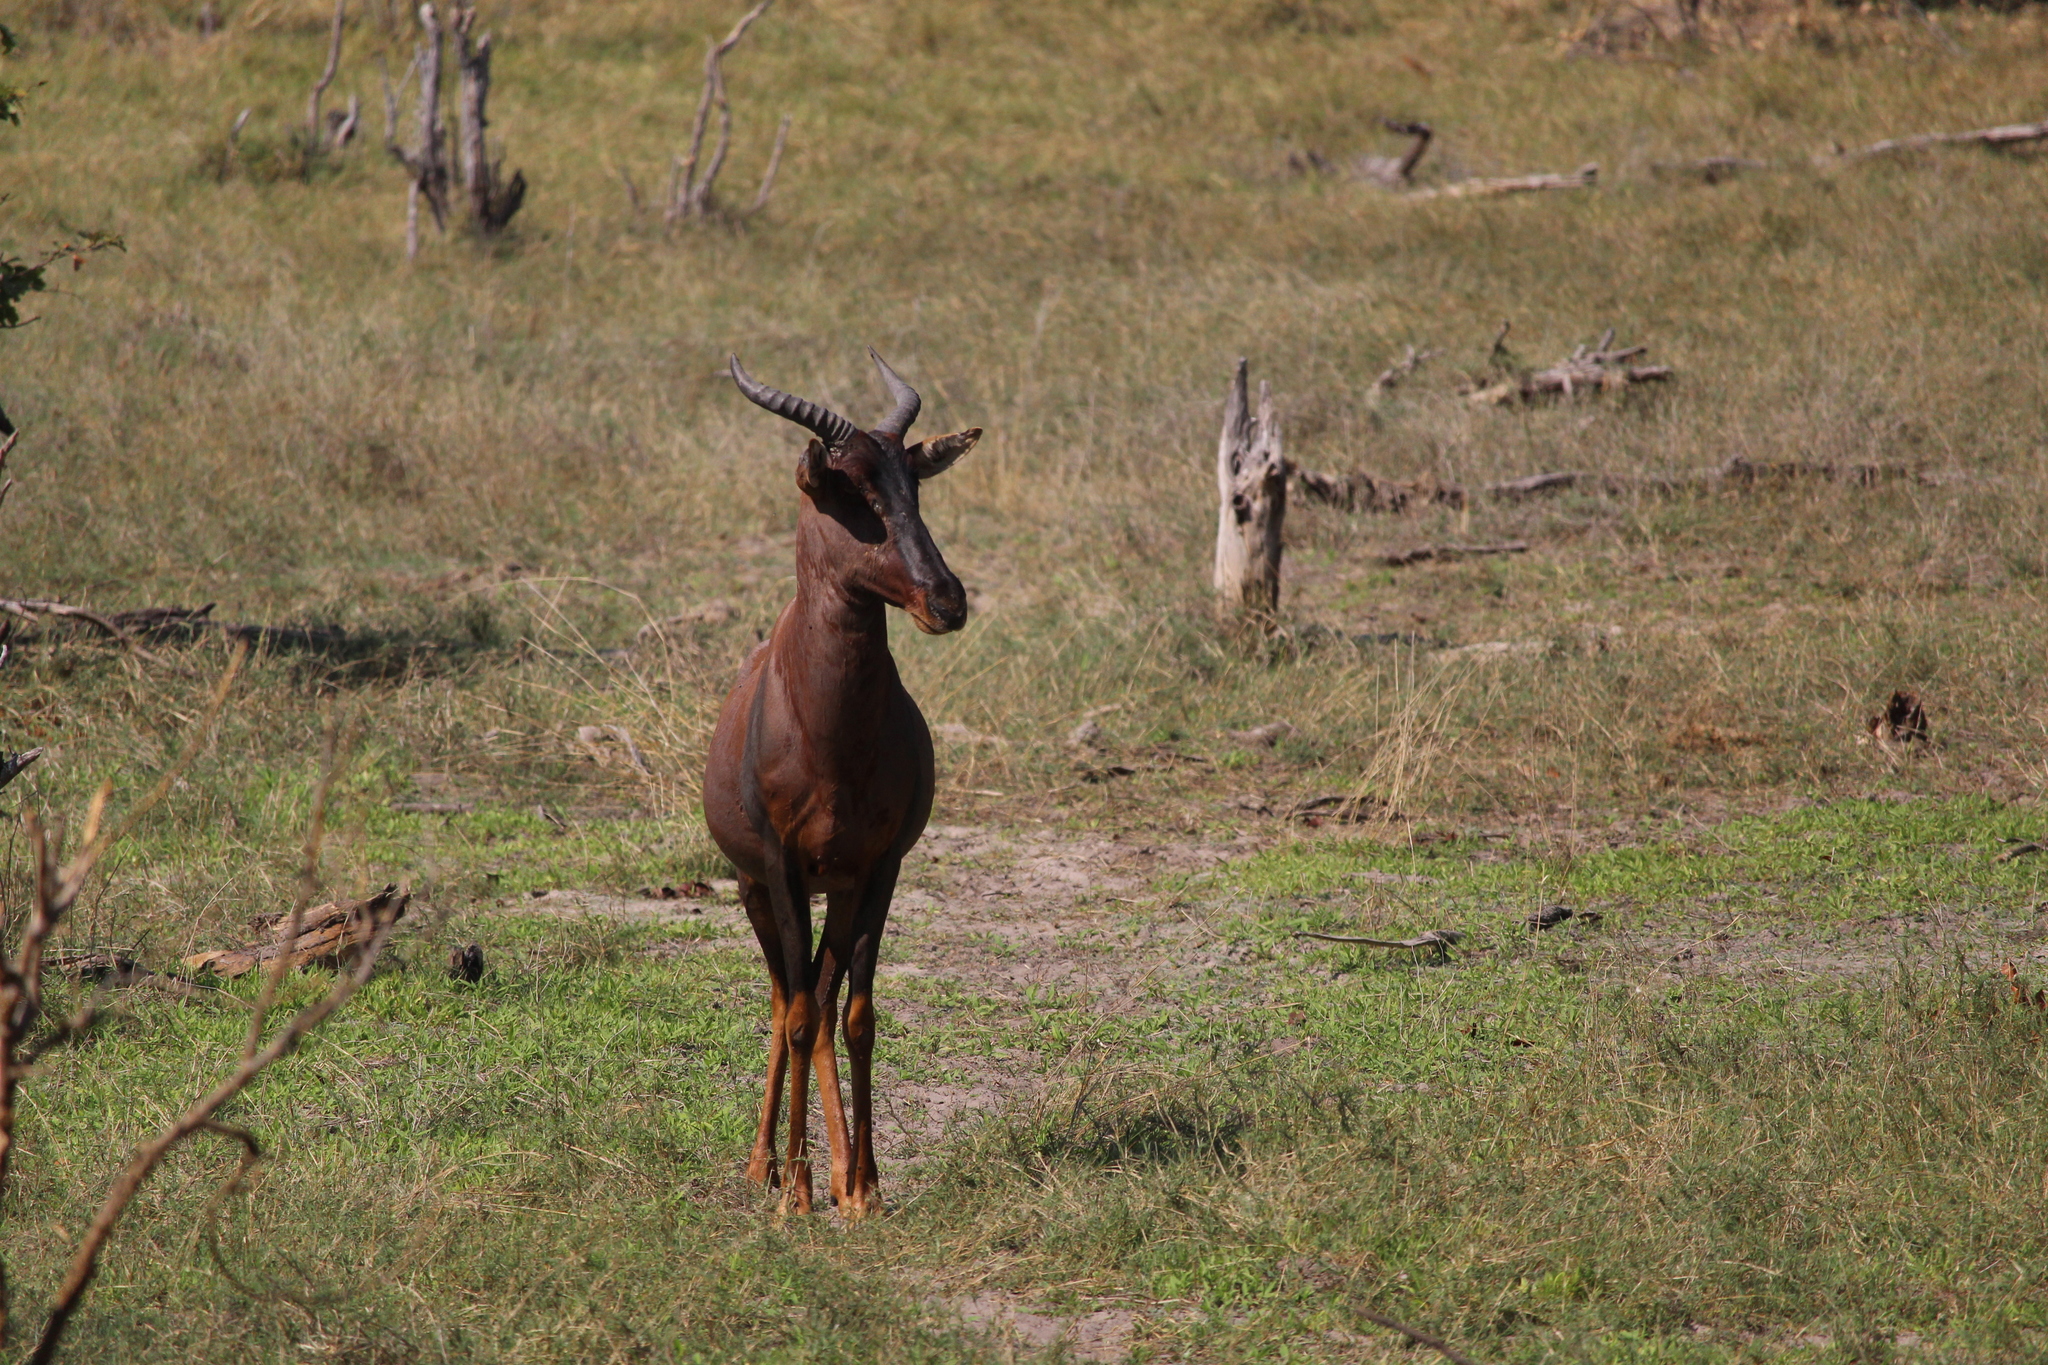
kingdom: Animalia
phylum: Chordata
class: Mammalia
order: Artiodactyla
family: Bovidae
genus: Damaliscus
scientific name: Damaliscus lunatus
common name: Common tsessebe
